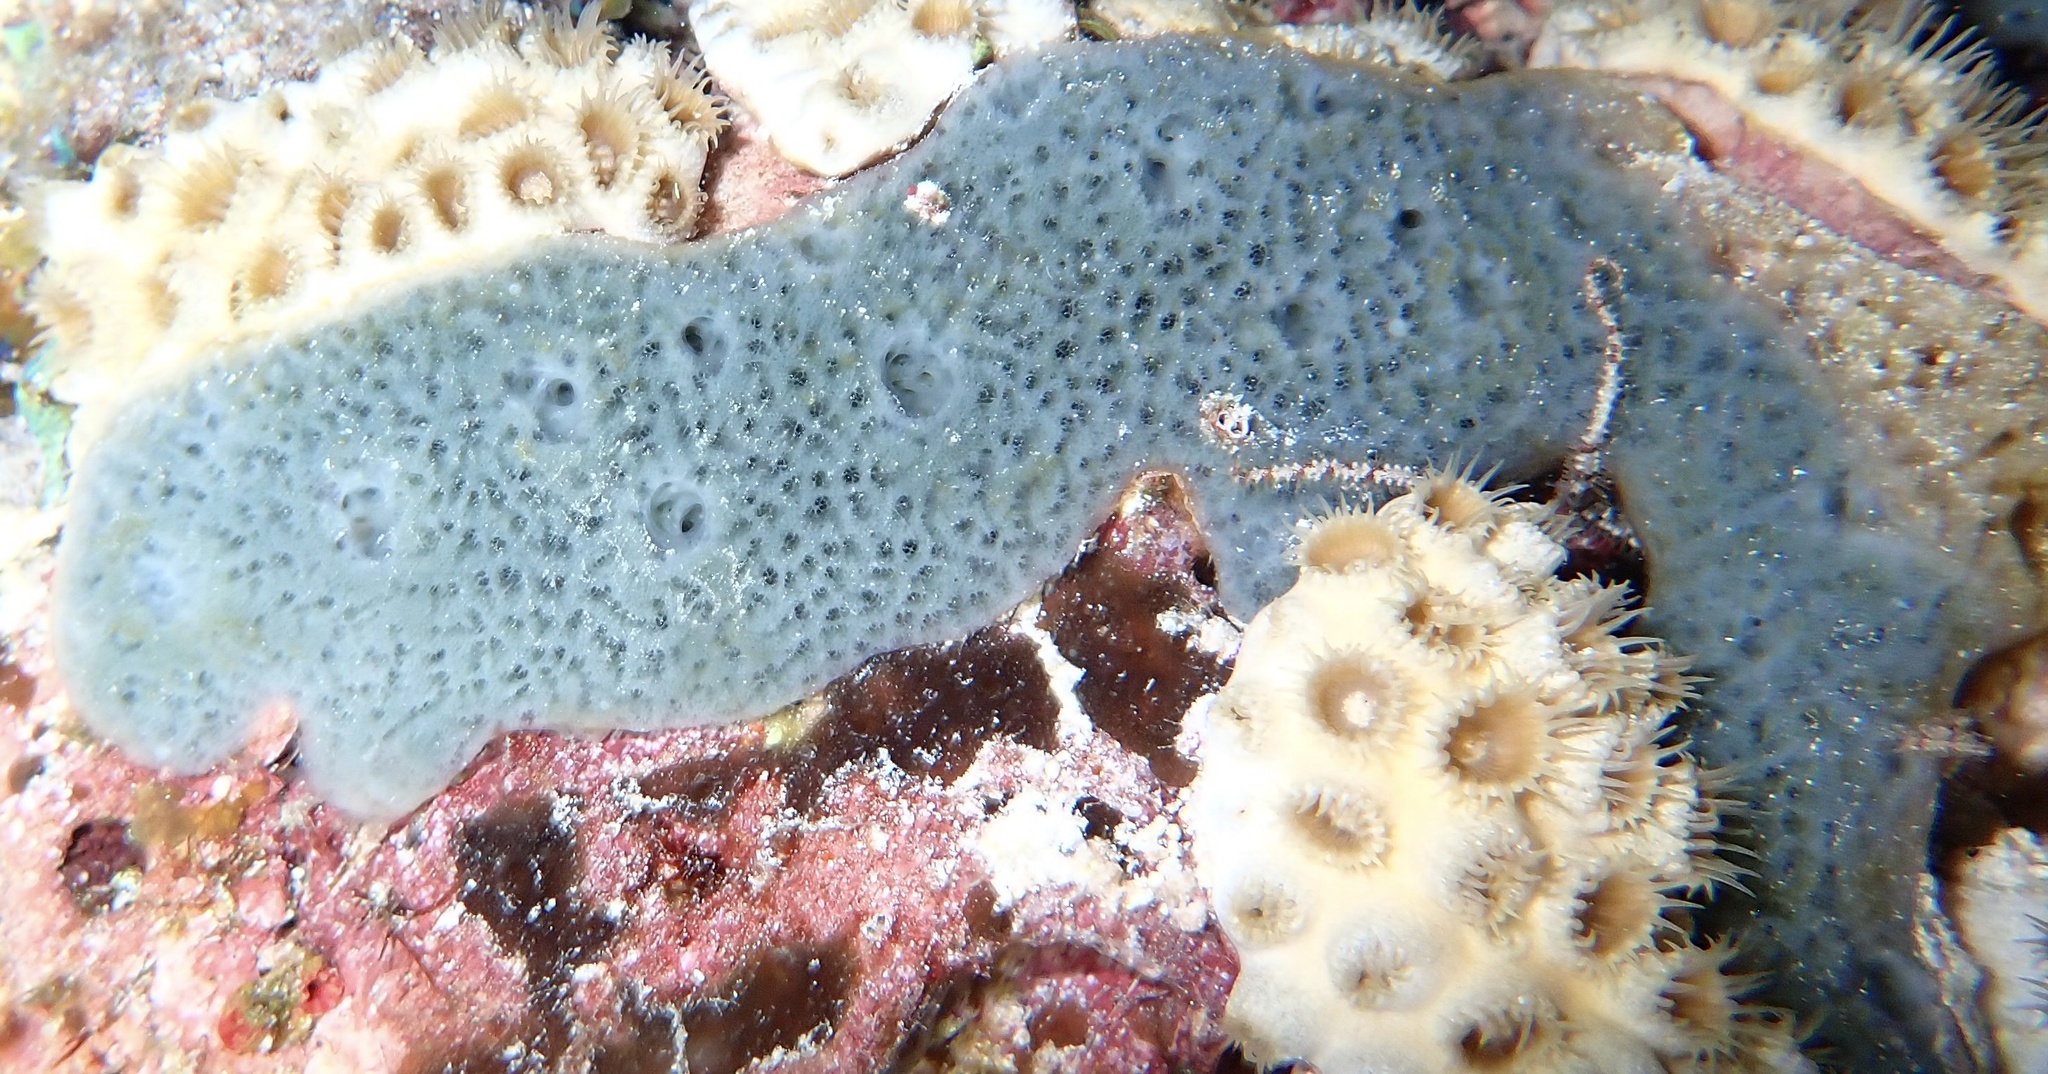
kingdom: Animalia
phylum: Porifera
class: Demospongiae
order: Haplosclerida
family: Niphatidae
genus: Niphates
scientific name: Niphates erecta
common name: Lavender rope sponge
